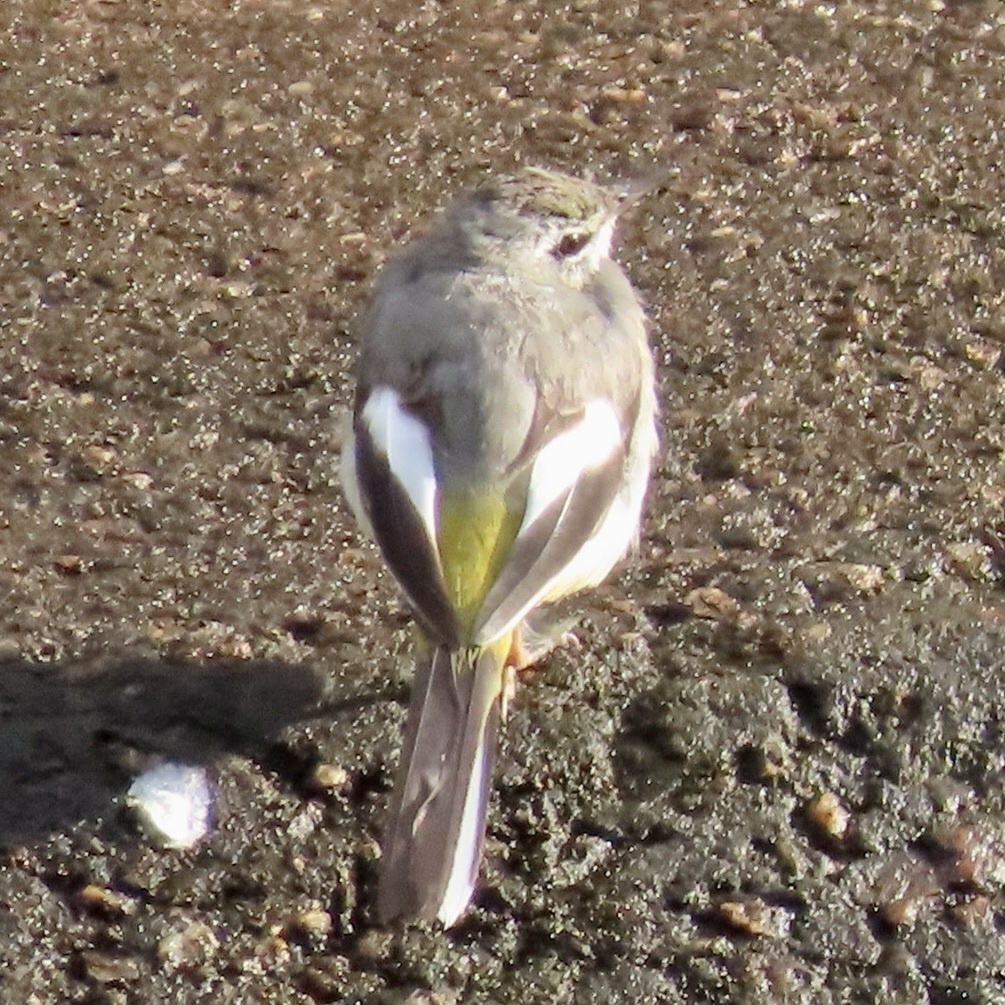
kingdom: Animalia
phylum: Chordata
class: Aves
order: Passeriformes
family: Motacillidae
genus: Motacilla
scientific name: Motacilla cinerea
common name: Grey wagtail
